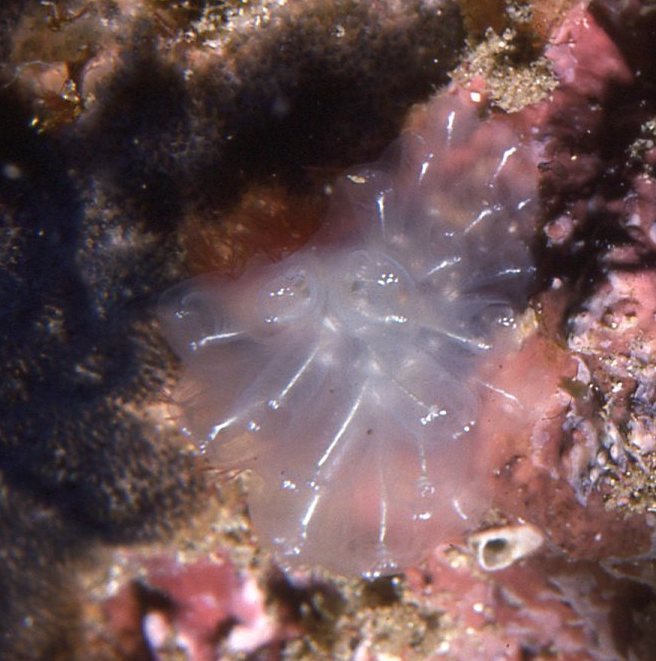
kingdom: Animalia
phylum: Chordata
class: Ascidiacea
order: Aplousobranchia
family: Pseudodistomidae
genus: Pseudodistoma
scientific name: Pseudodistoma fragile
